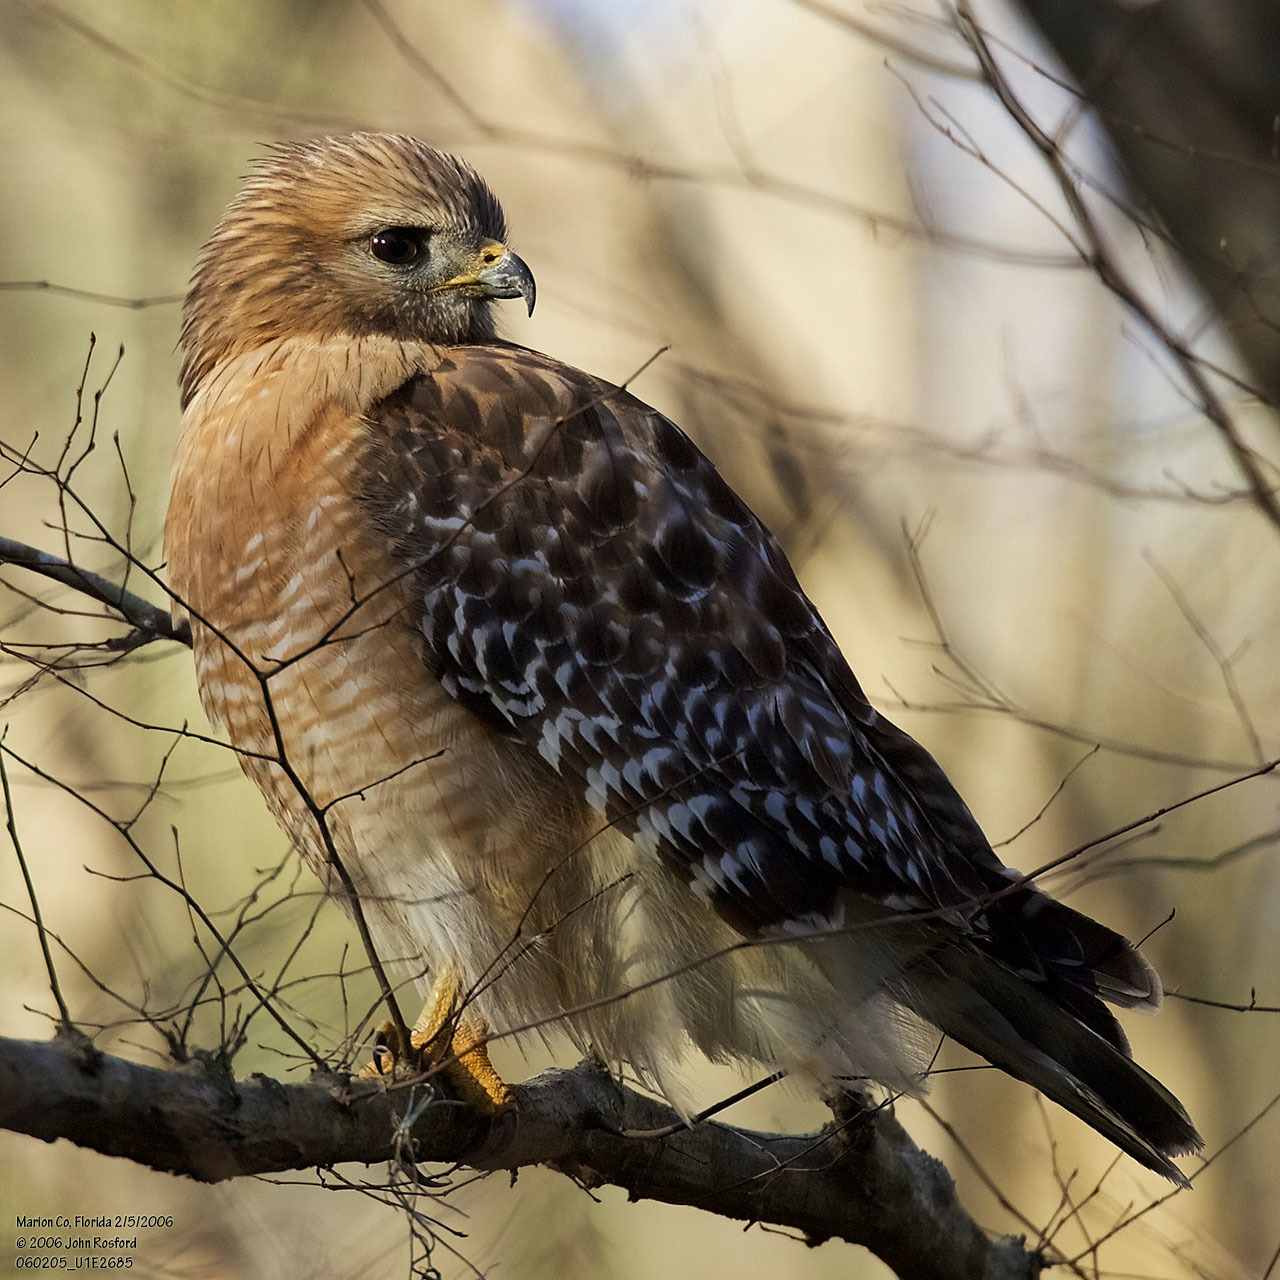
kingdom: Animalia
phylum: Chordata
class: Aves
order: Accipitriformes
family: Accipitridae
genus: Buteo
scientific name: Buteo lineatus
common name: Red-shouldered hawk
